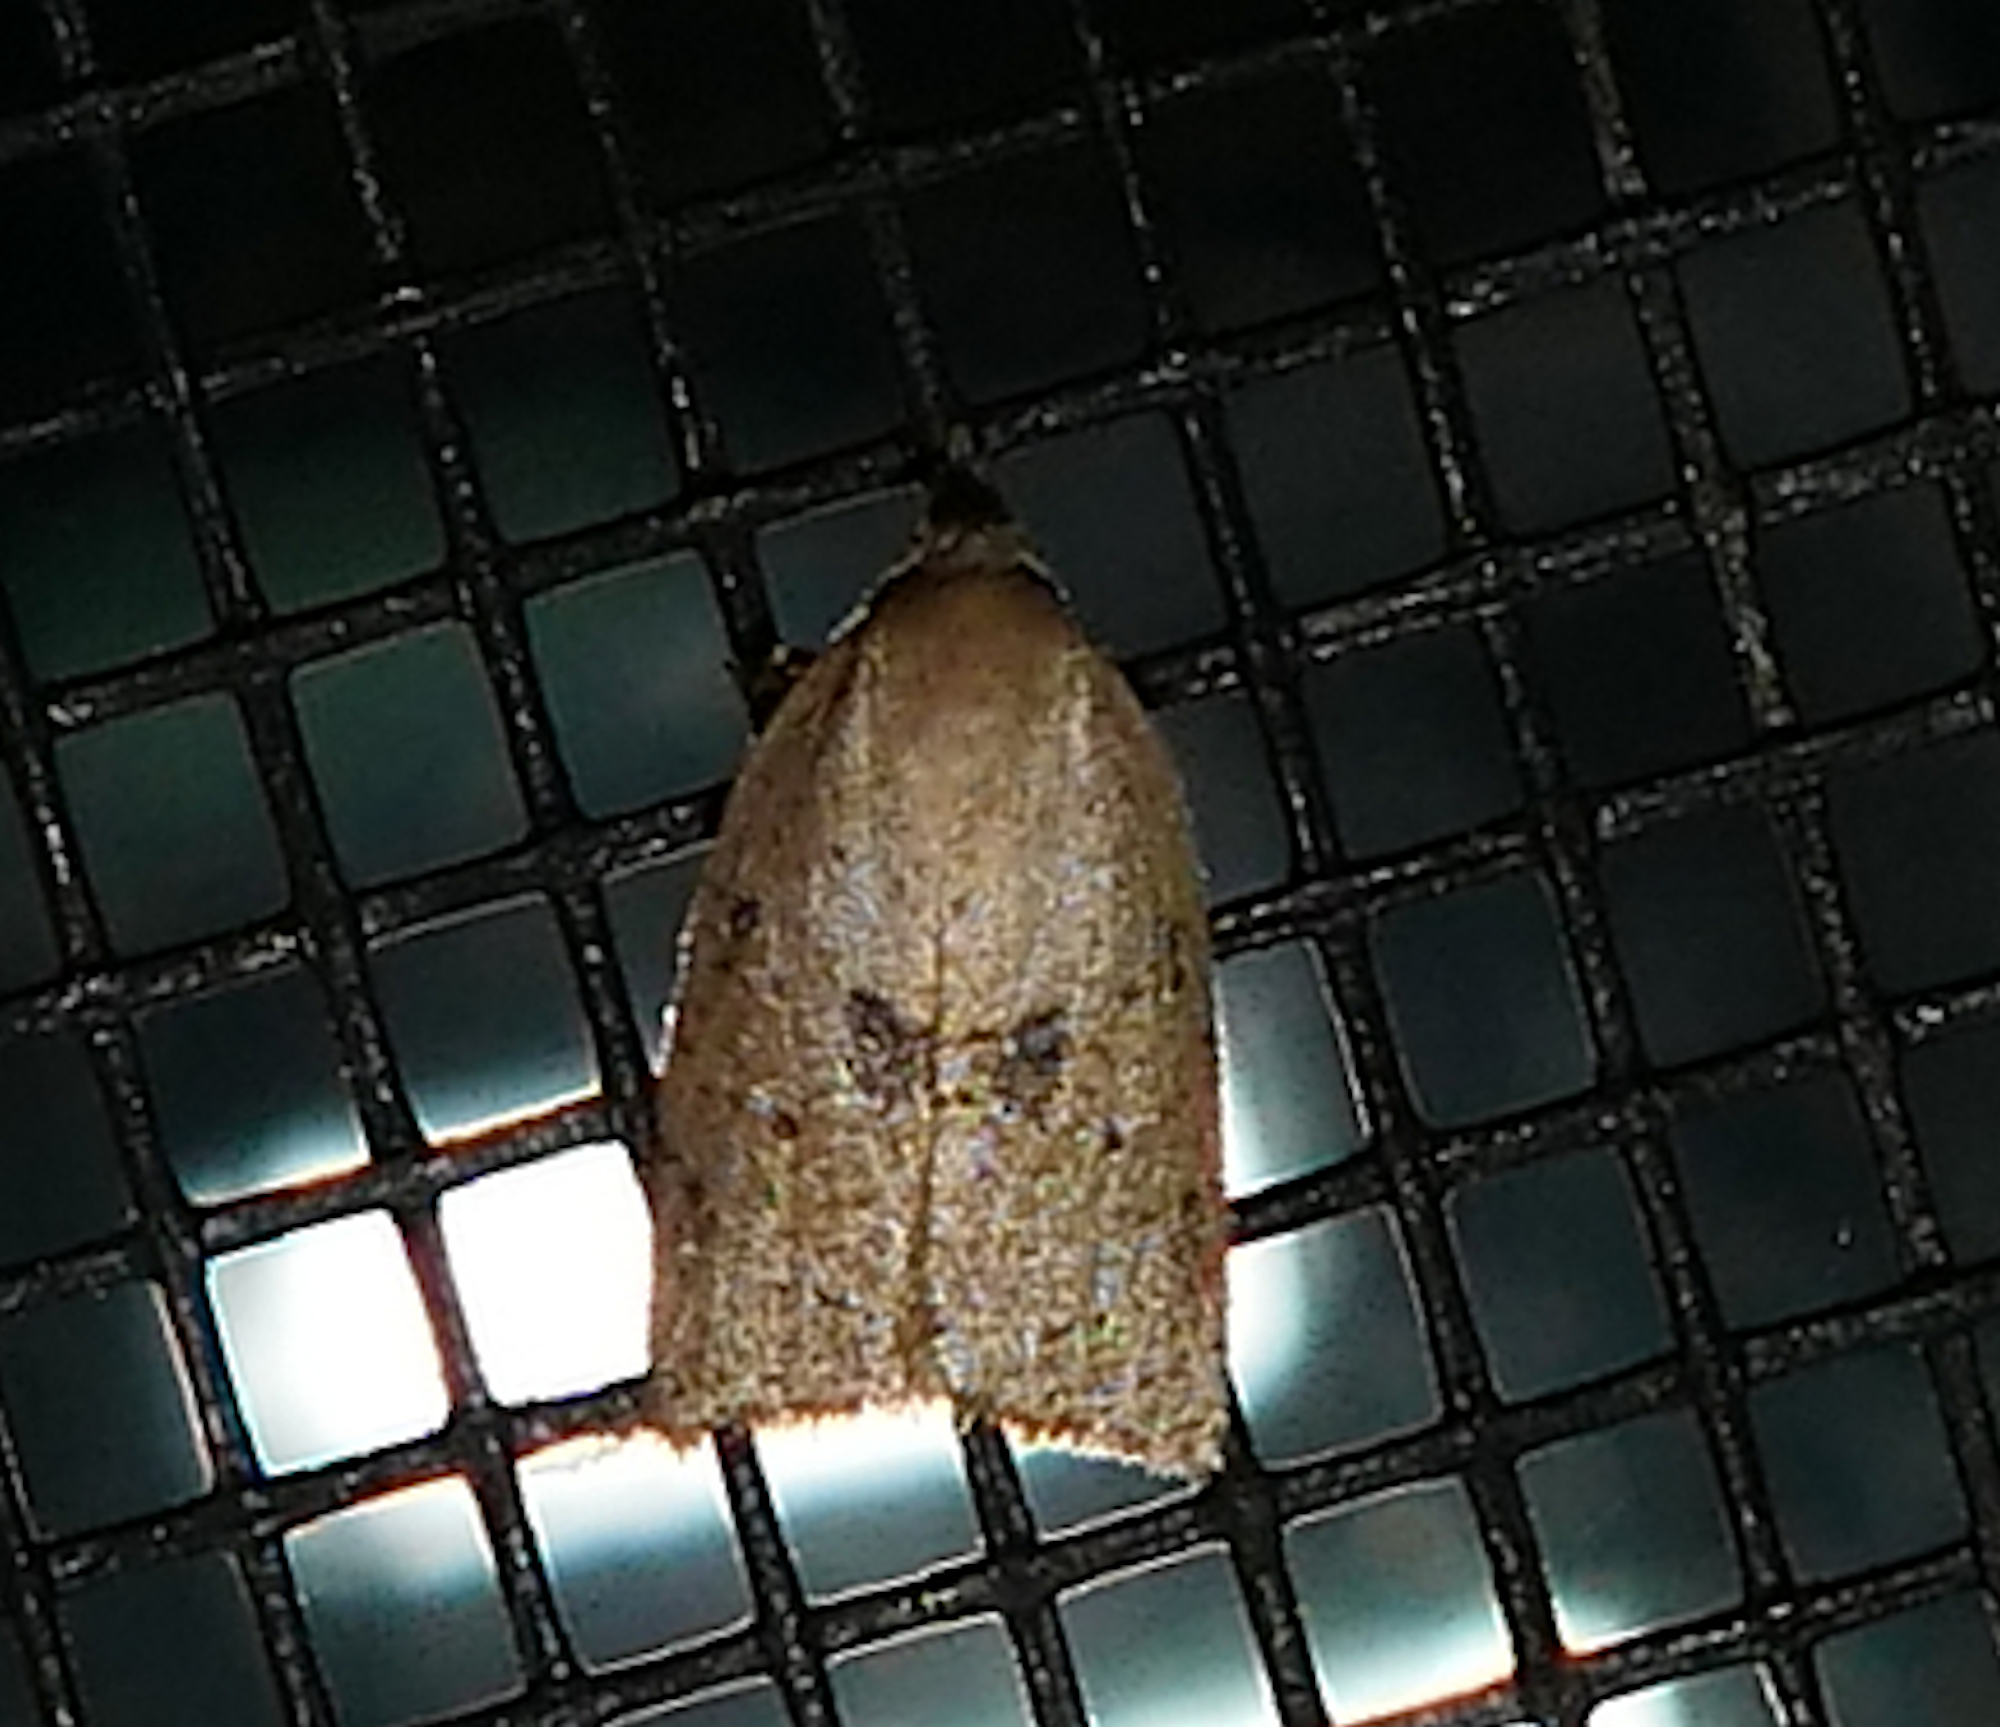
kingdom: Animalia
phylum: Arthropoda
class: Insecta
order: Lepidoptera
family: Tortricidae
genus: Coelostathma
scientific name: Coelostathma placidana
